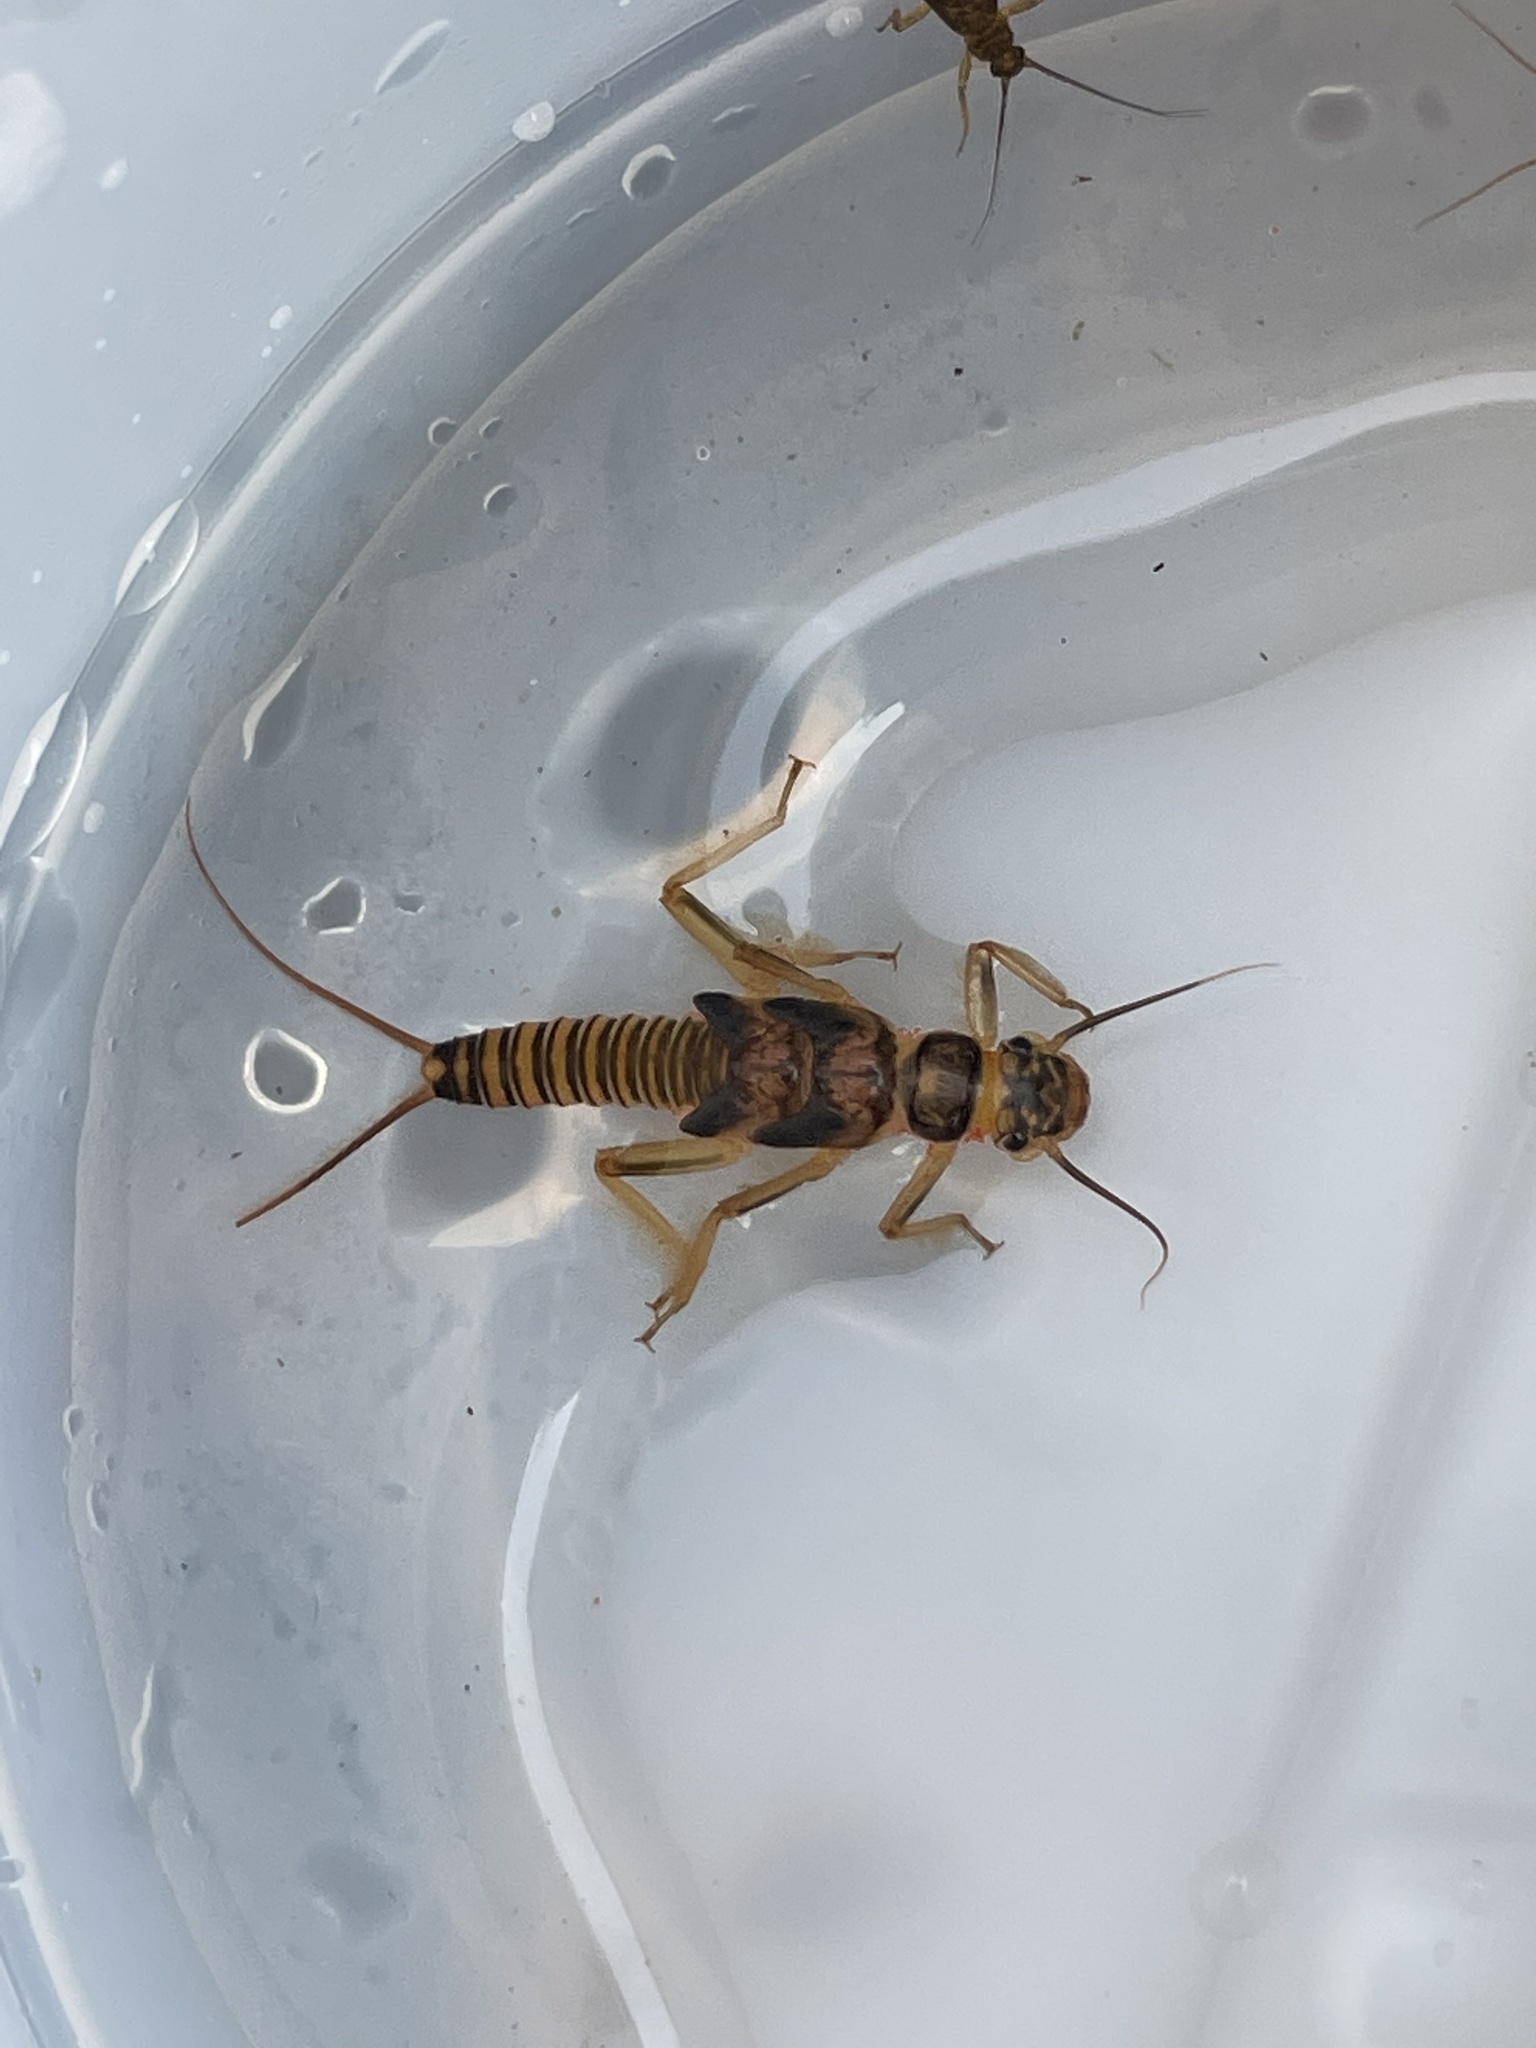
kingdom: Animalia
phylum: Arthropoda
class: Insecta
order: Plecoptera
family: Perlodidae
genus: Malirekus
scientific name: Malirekus iroquois
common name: Iroquois springfly
